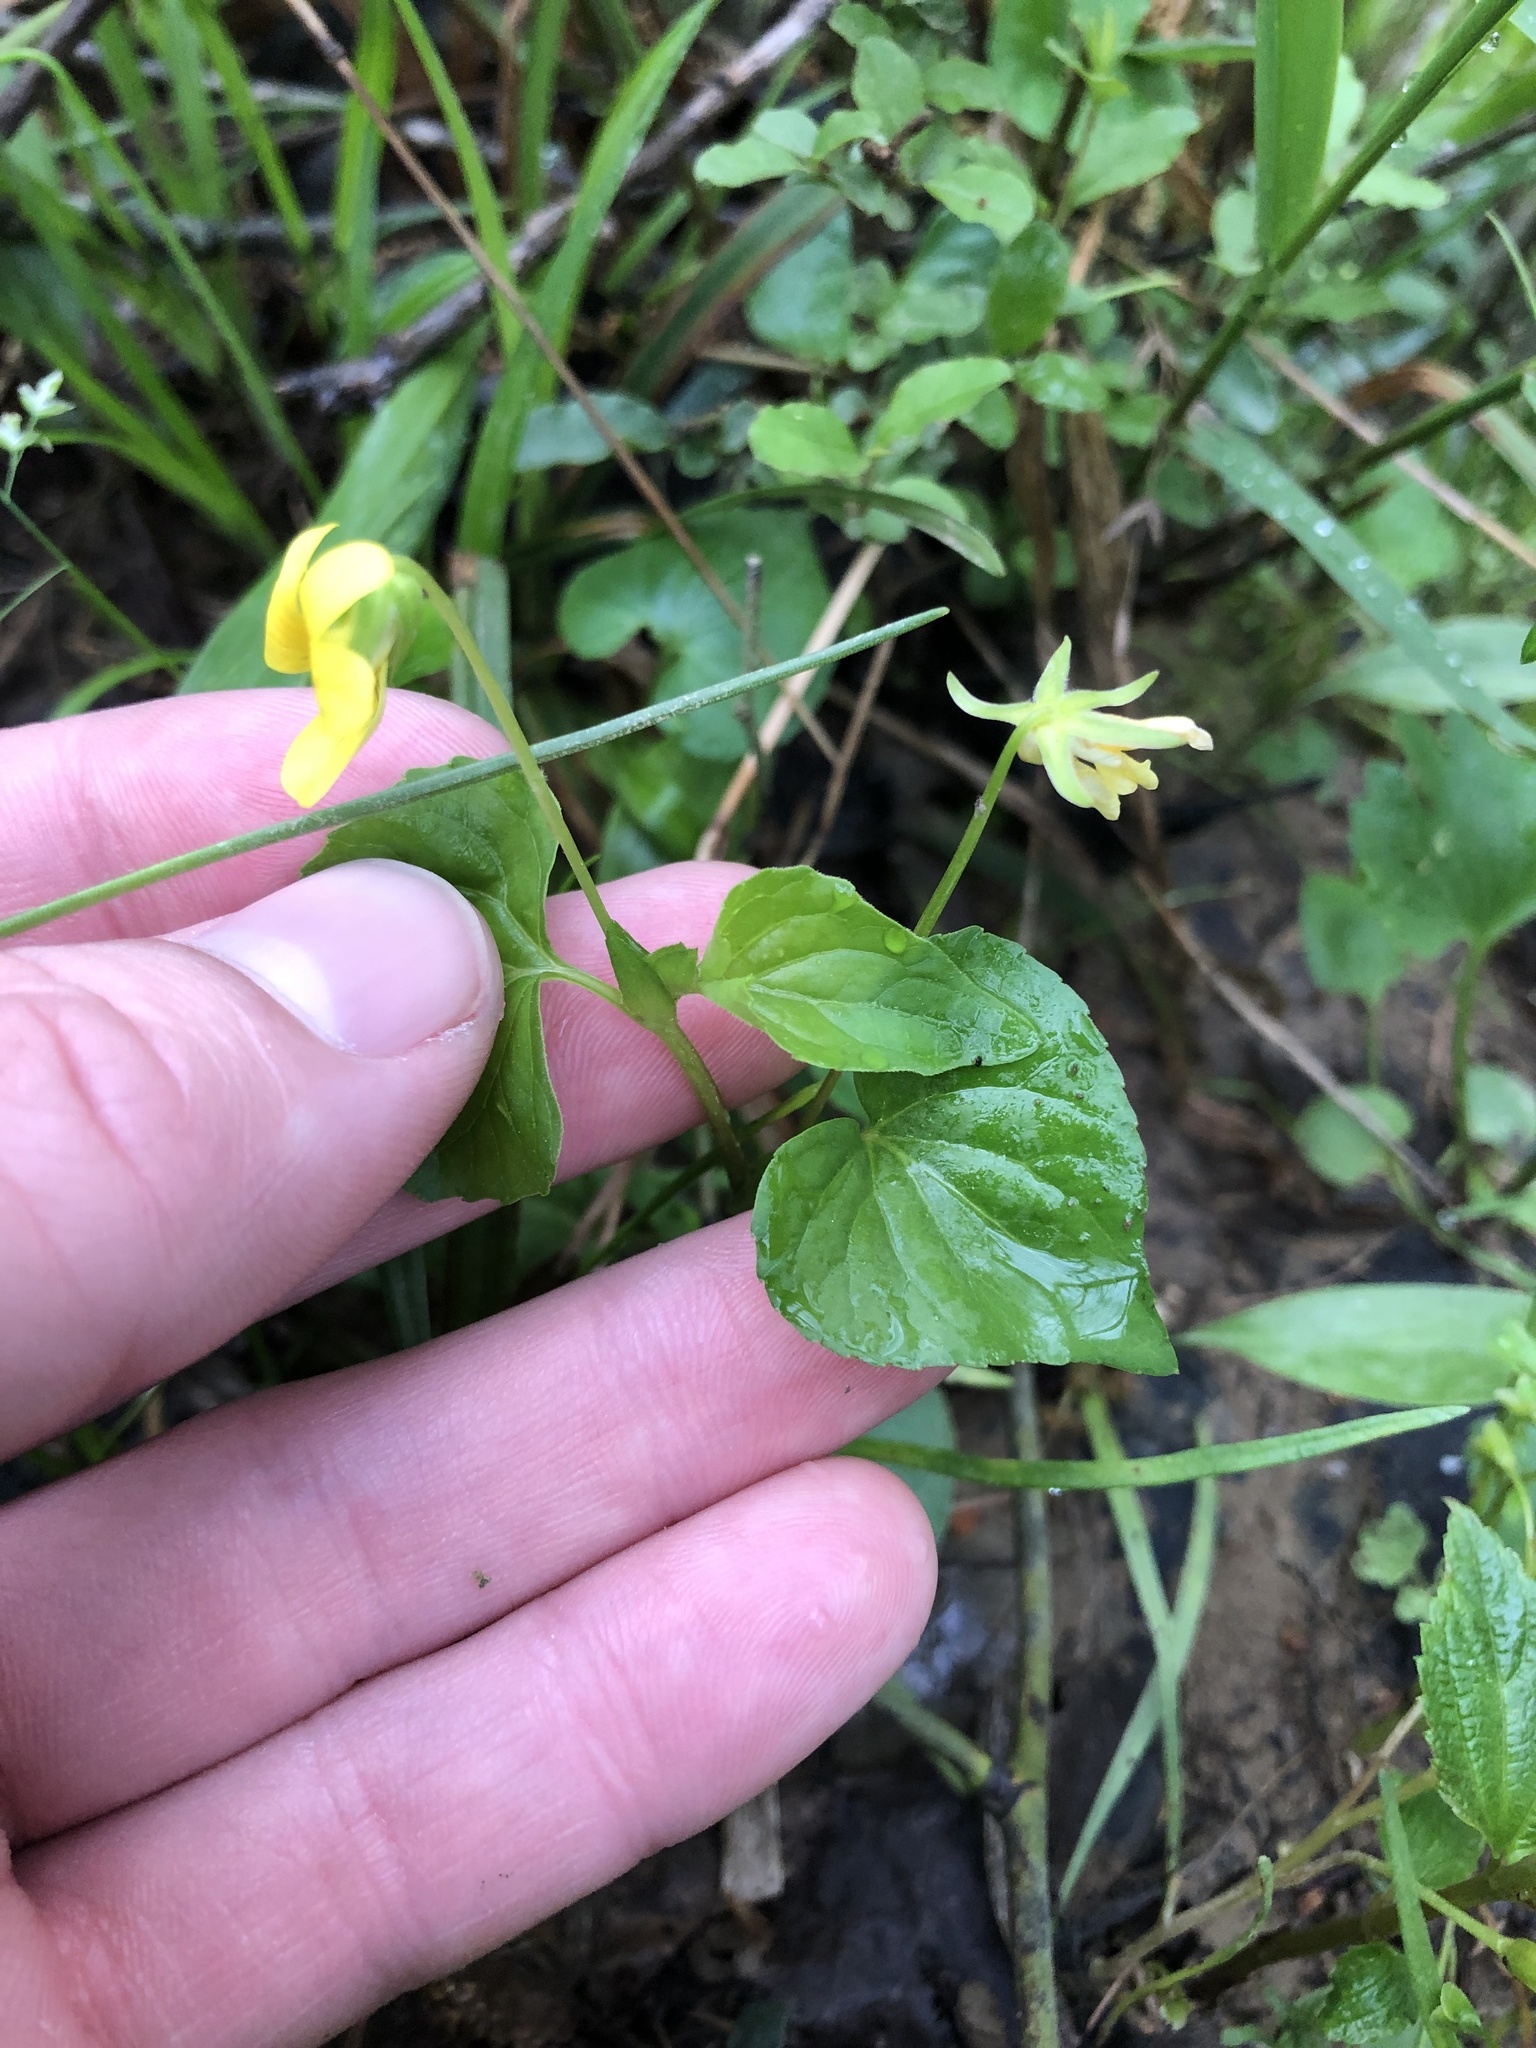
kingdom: Plantae
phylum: Tracheophyta
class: Magnoliopsida
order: Malpighiales
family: Violaceae
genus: Viola
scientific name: Viola eriocarpa
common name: Smooth yellow violet
